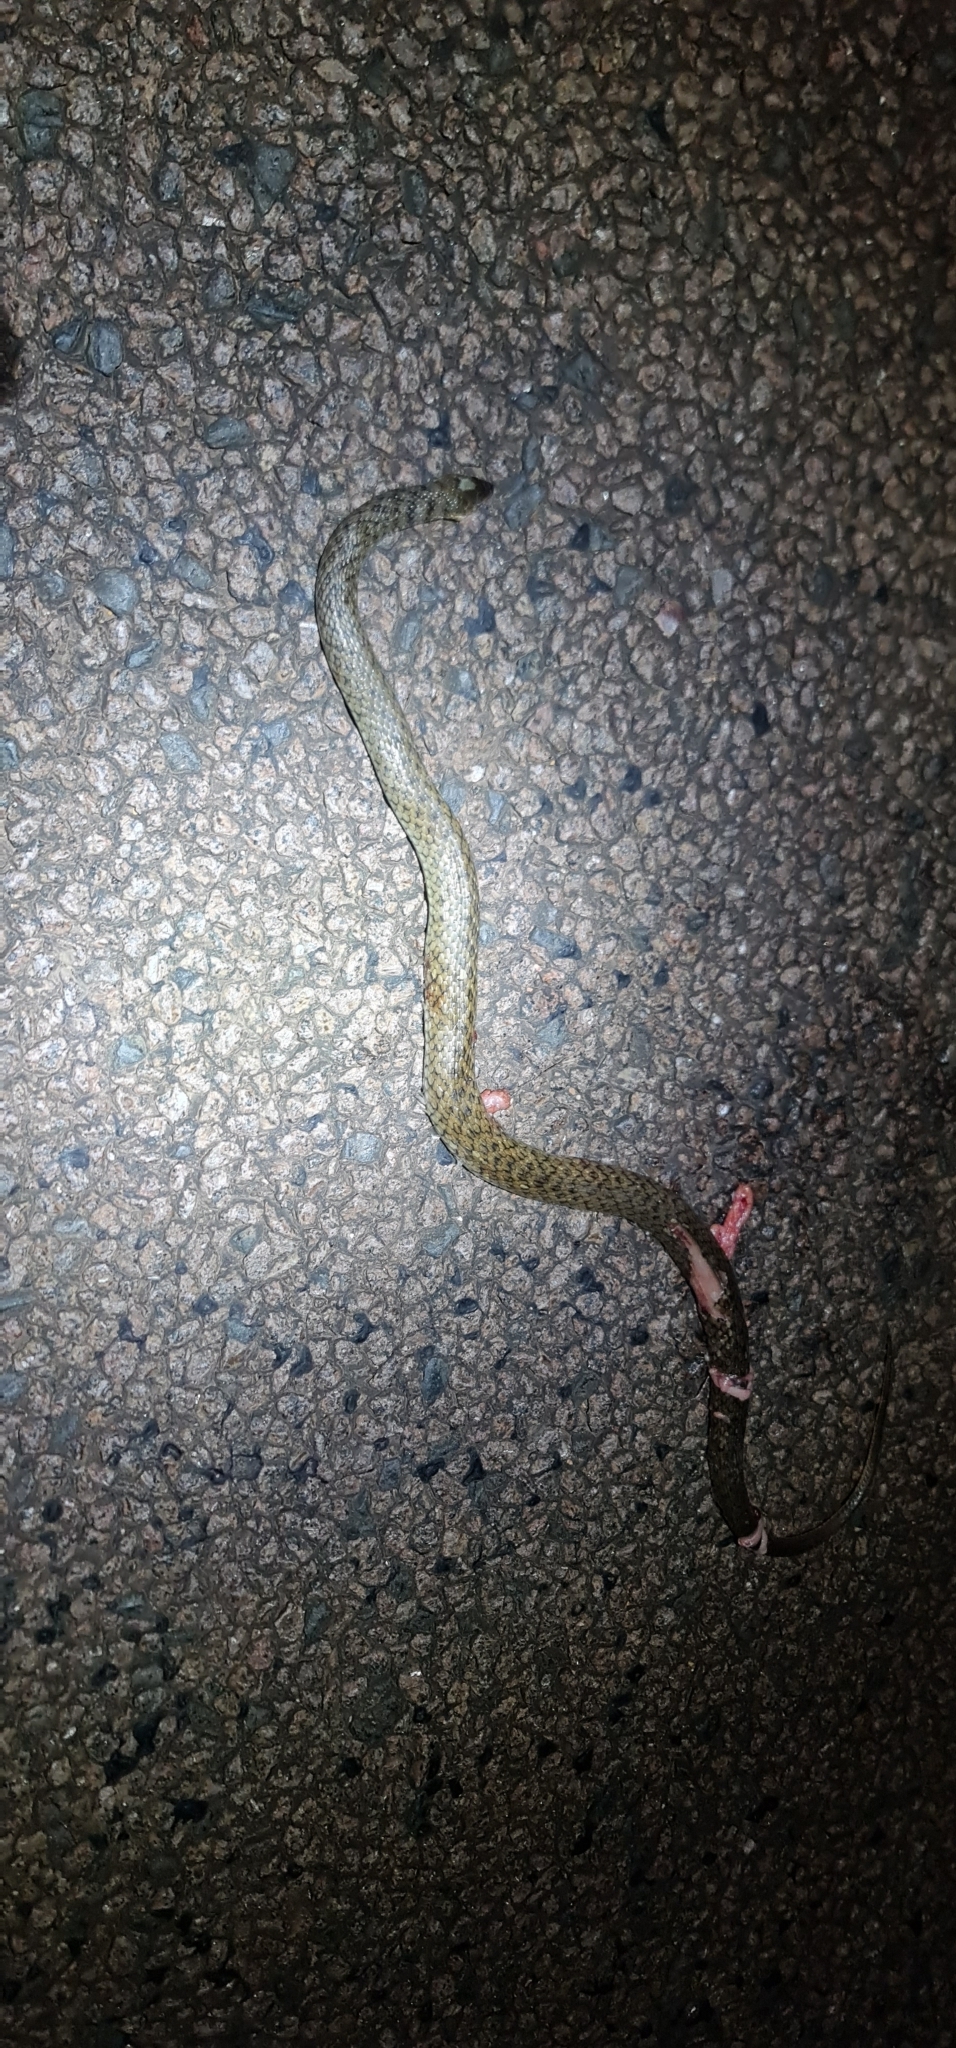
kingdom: Animalia
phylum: Chordata
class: Squamata
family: Colubridae
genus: Tropidonophis
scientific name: Tropidonophis mairii
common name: Common keelback
